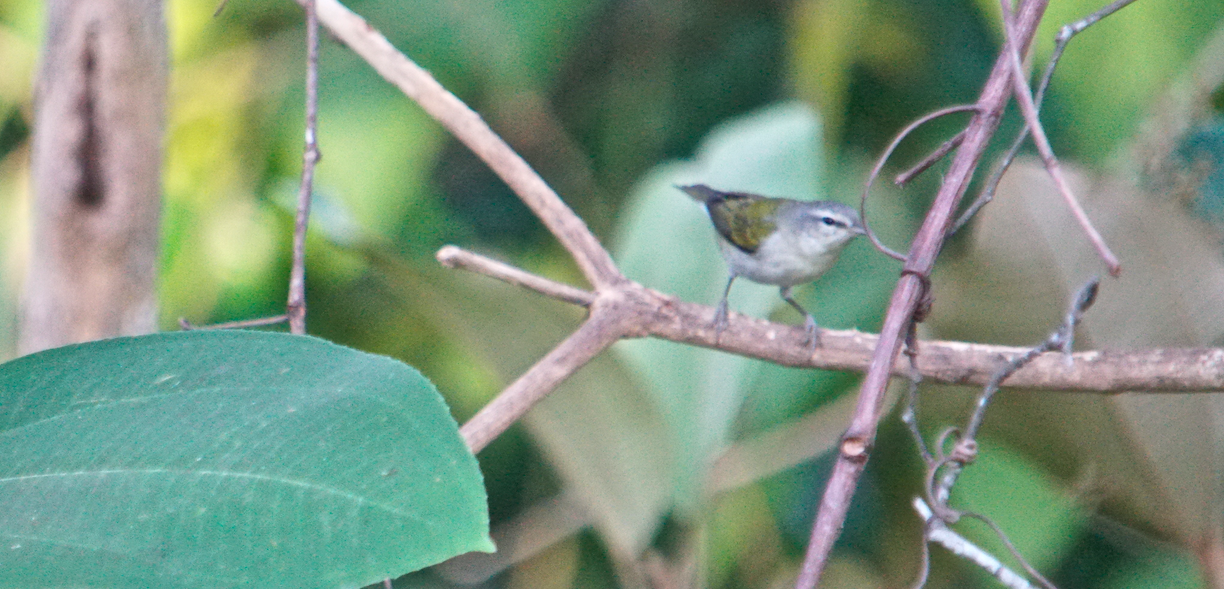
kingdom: Animalia
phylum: Chordata
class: Aves
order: Passeriformes
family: Parulidae
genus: Leiothlypis
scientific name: Leiothlypis peregrina
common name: Tennessee warbler
